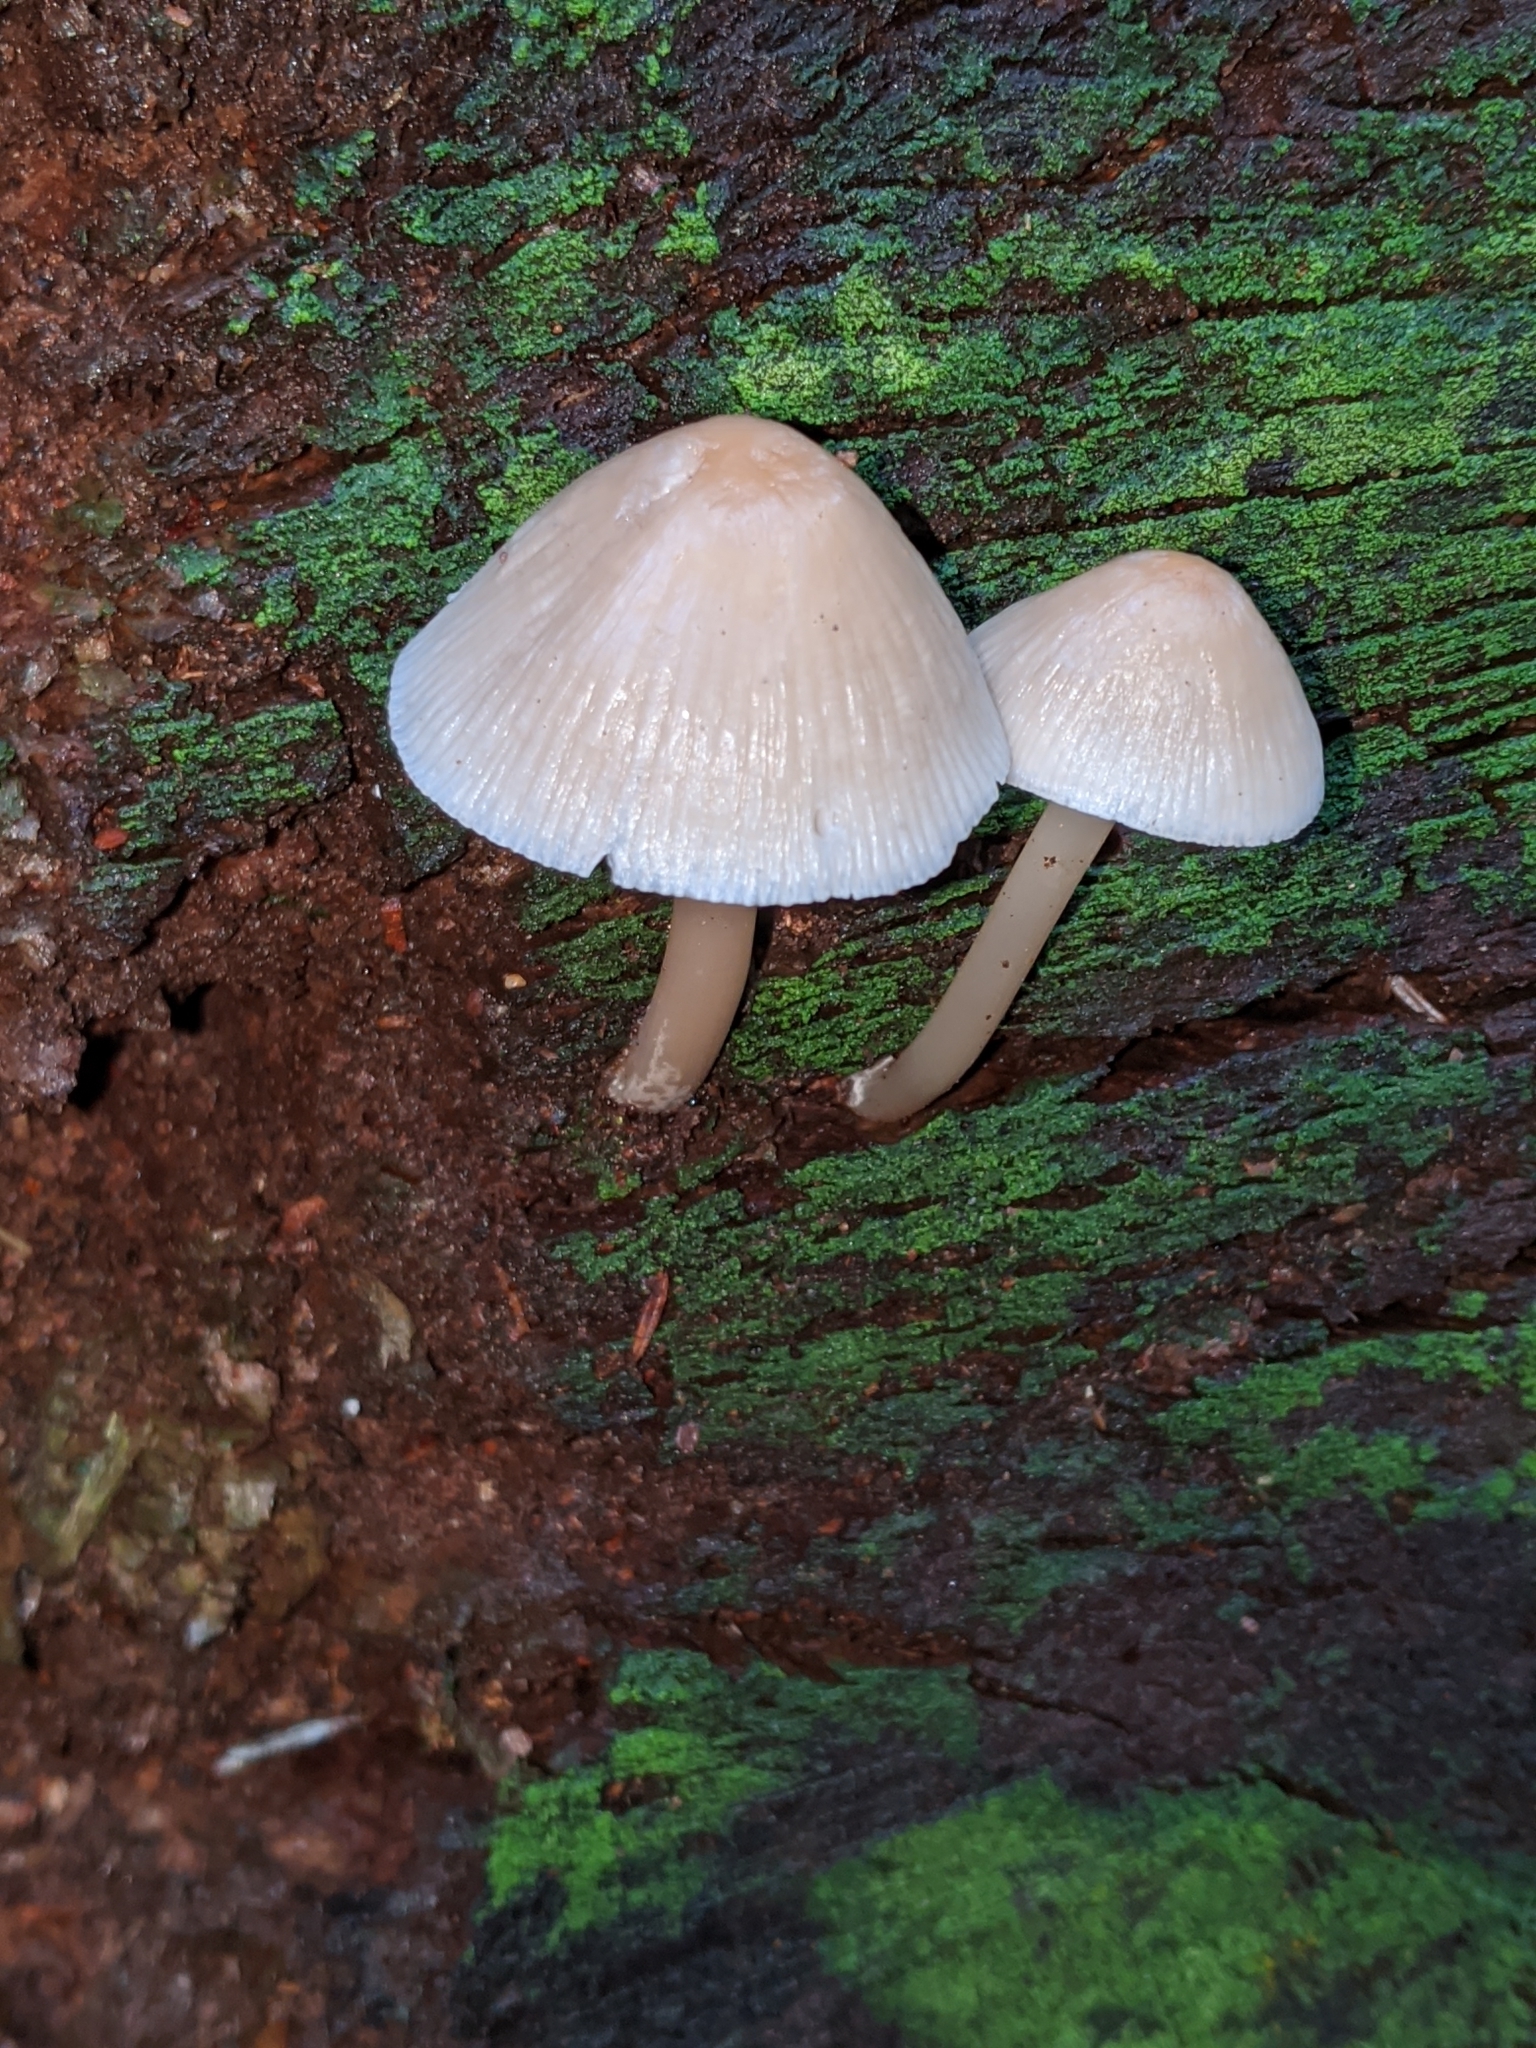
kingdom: Fungi
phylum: Basidiomycota
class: Agaricomycetes
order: Agaricales
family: Mycenaceae
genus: Mycena
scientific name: Mycena galericulata
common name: Bonnet mycena
